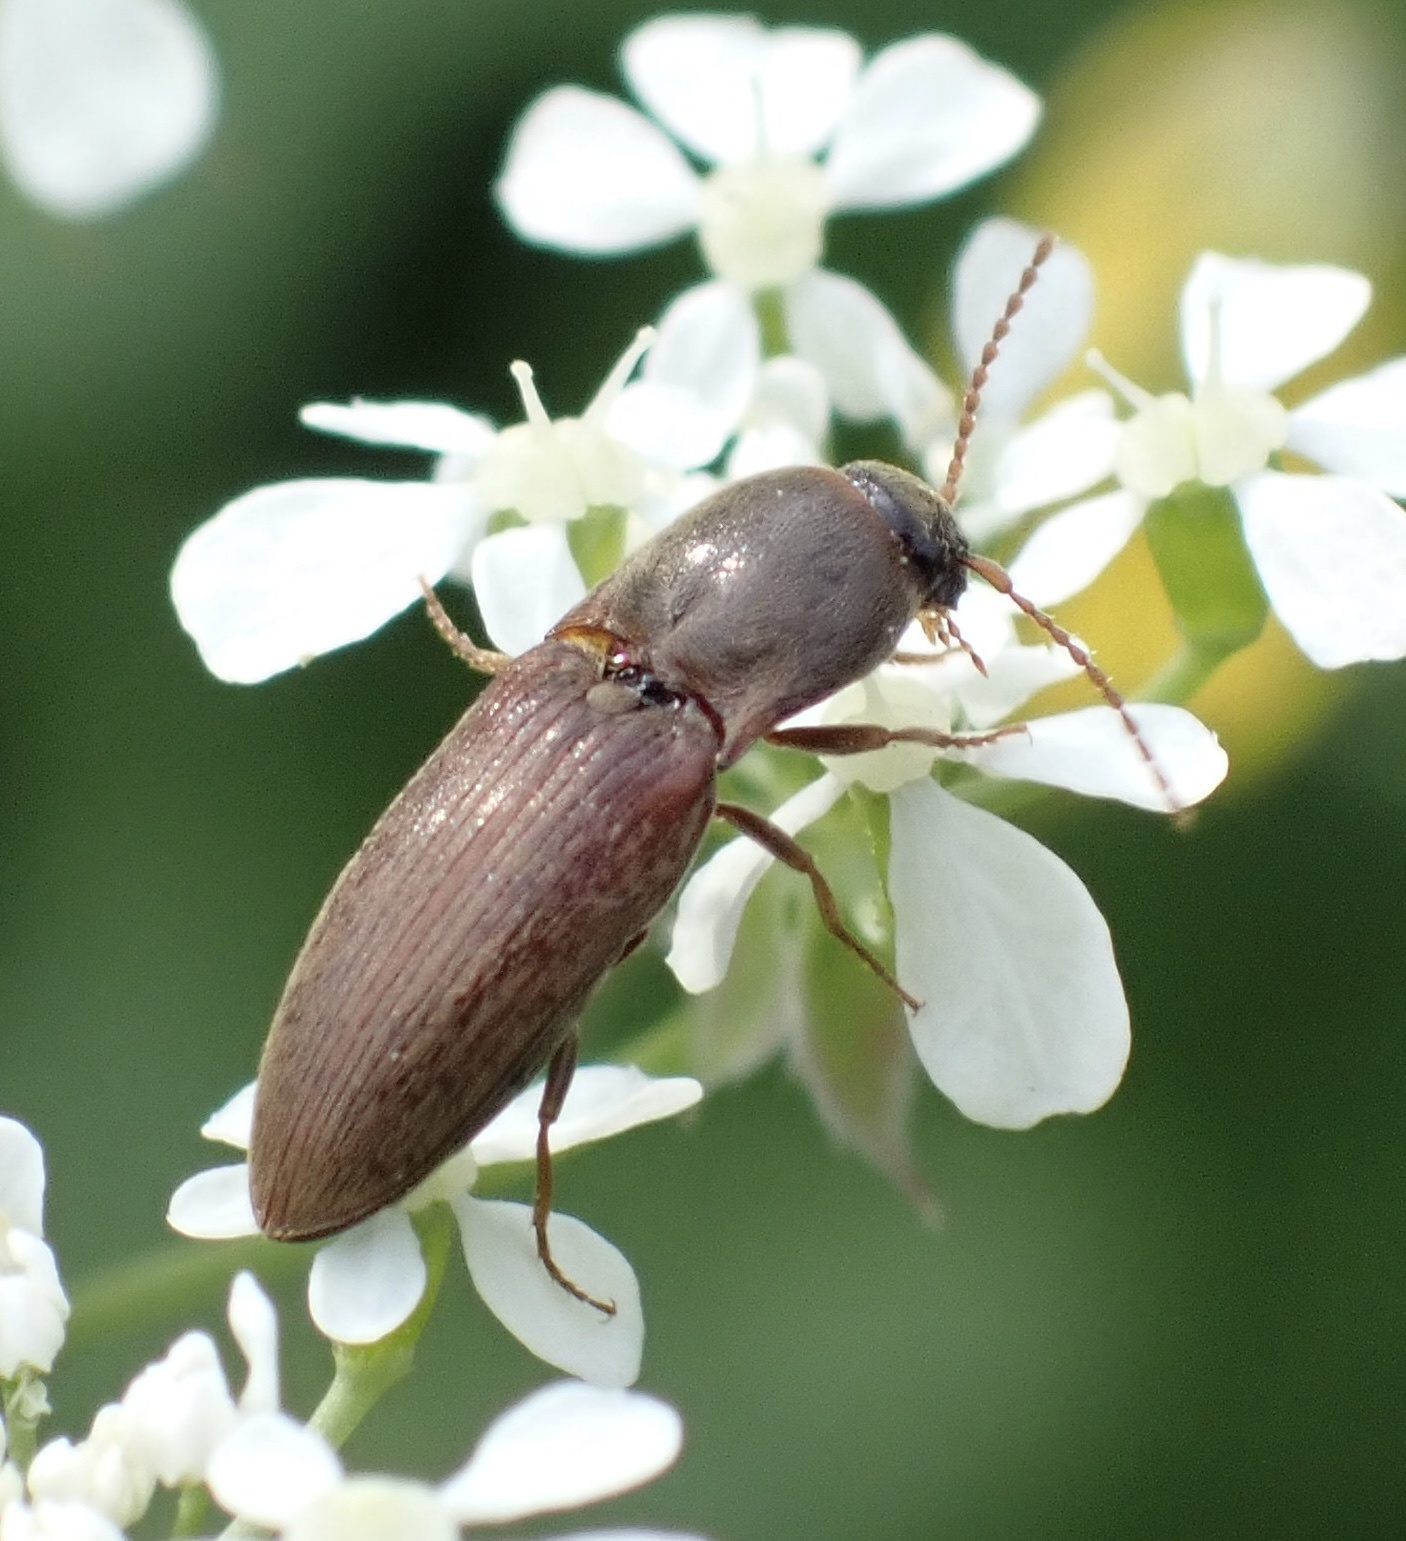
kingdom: Animalia
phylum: Arthropoda
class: Insecta
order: Coleoptera
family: Elateridae
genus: Agriotes
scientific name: Agriotes sputator
